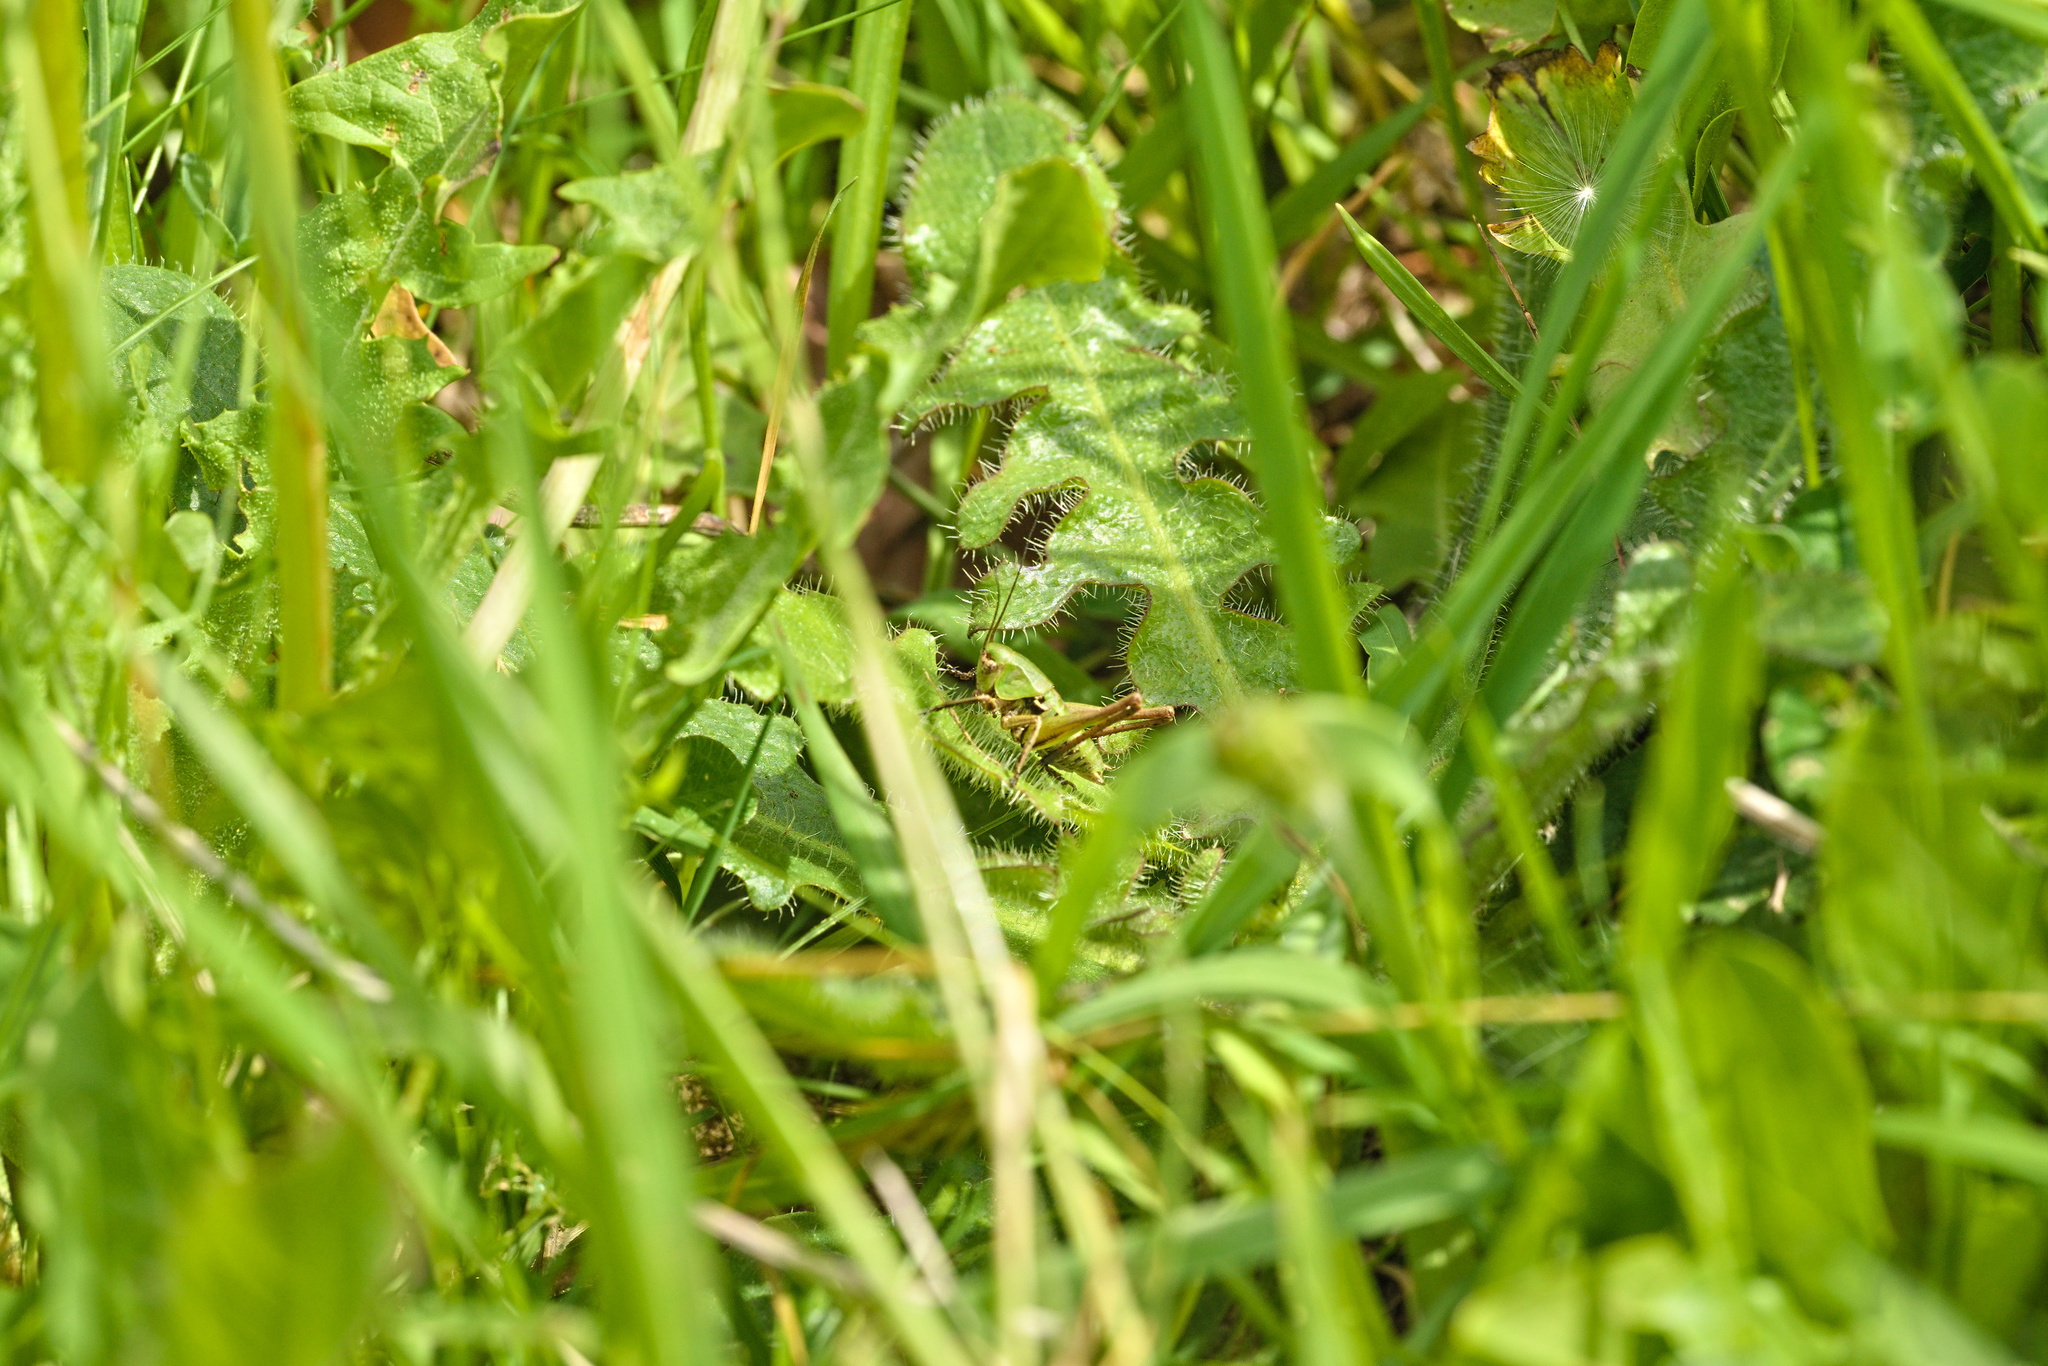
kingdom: Animalia
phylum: Arthropoda
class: Insecta
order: Orthoptera
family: Tettigoniidae
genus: Decticus
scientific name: Decticus verrucivorus
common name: Wart-biter
